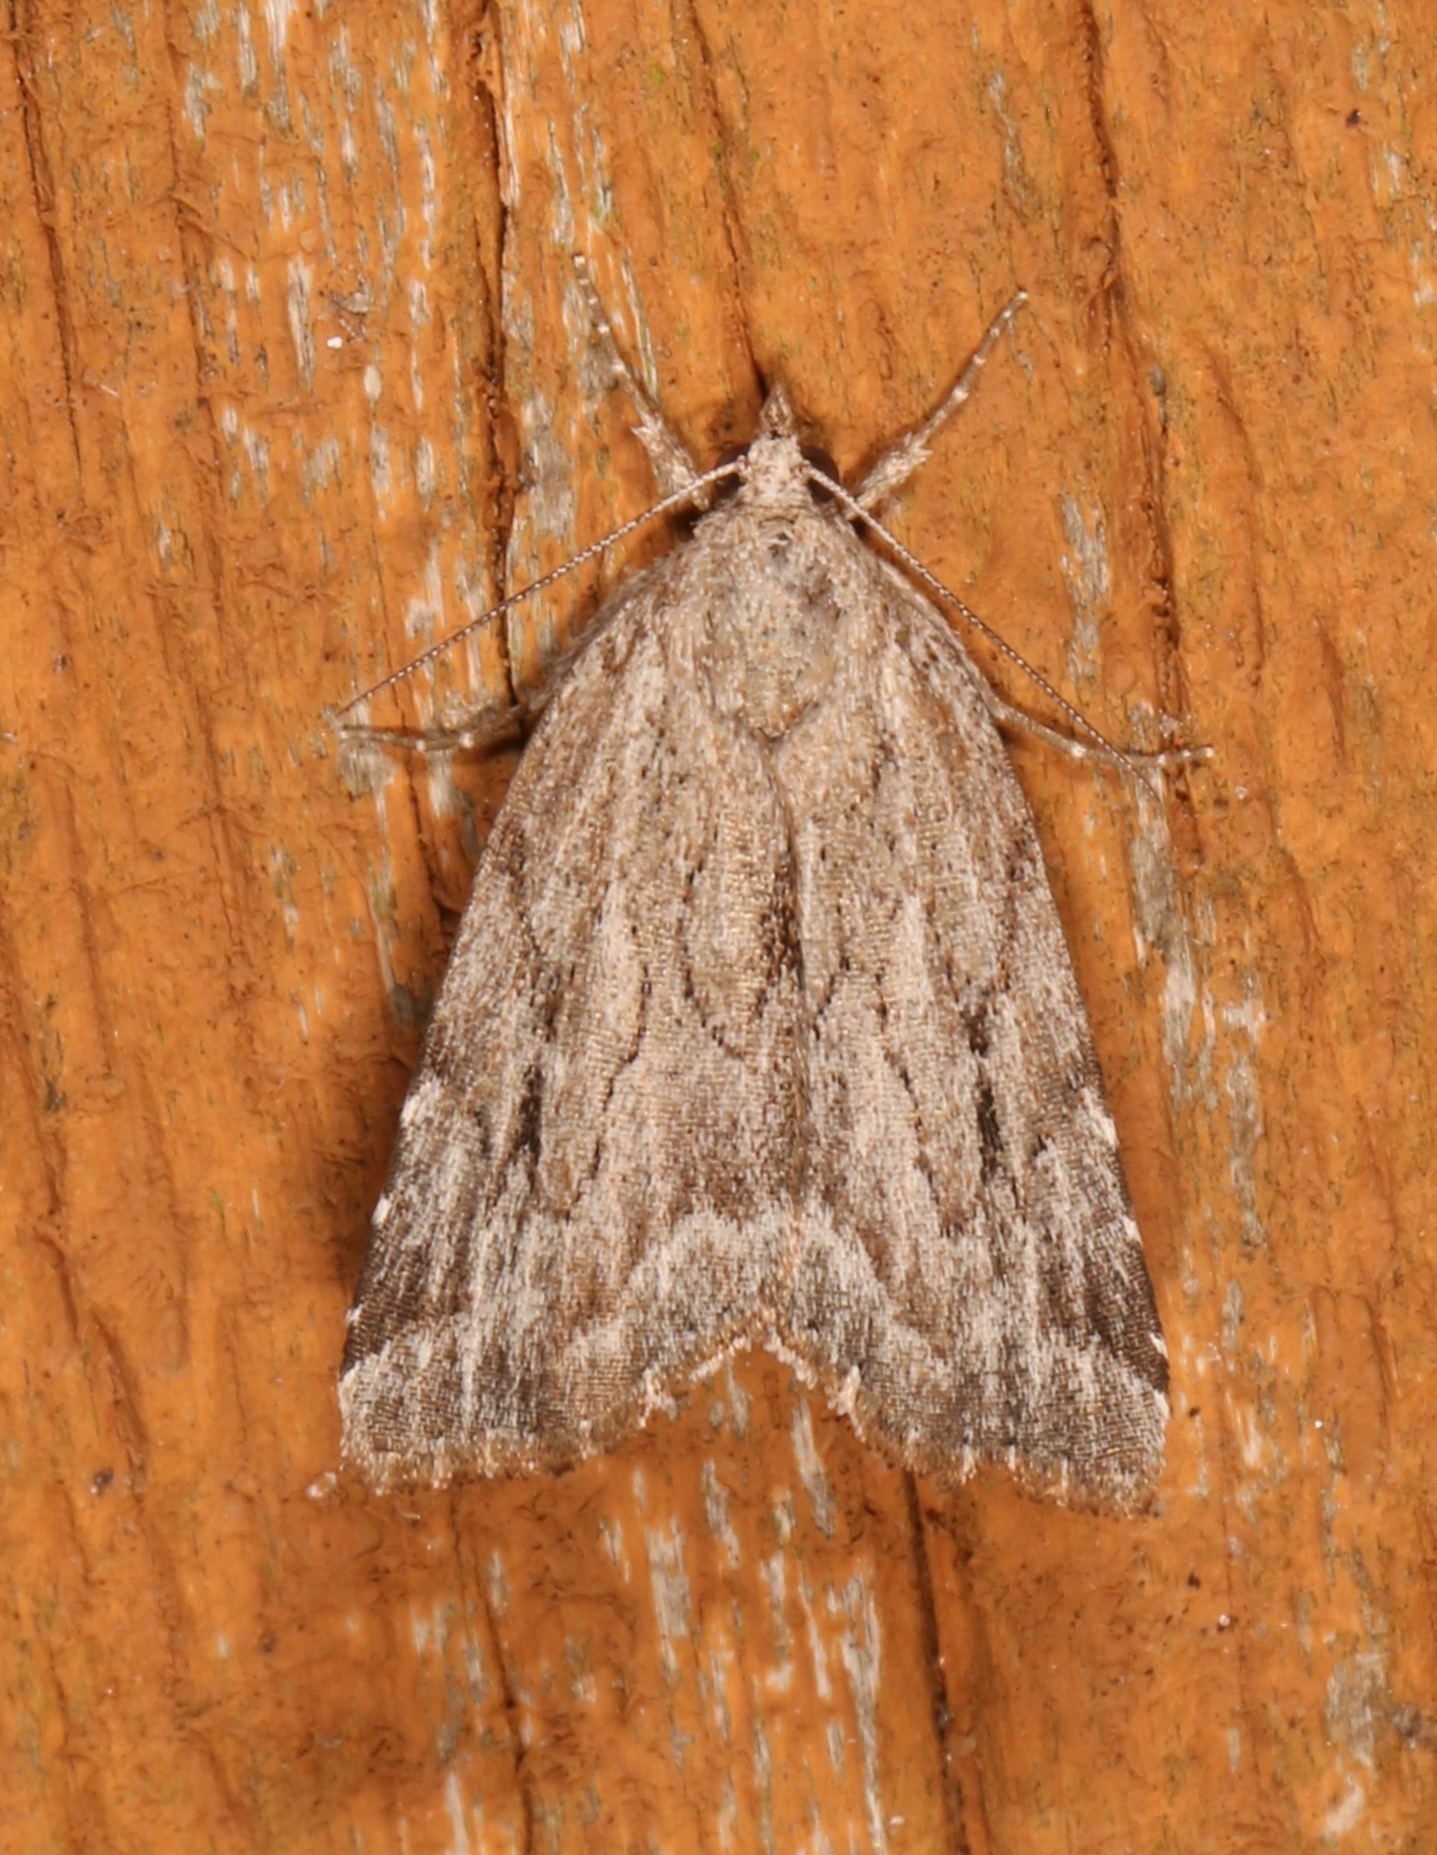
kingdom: Animalia
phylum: Arthropoda
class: Insecta
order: Lepidoptera
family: Erebidae
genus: Cutina
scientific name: Cutina albopunctella
